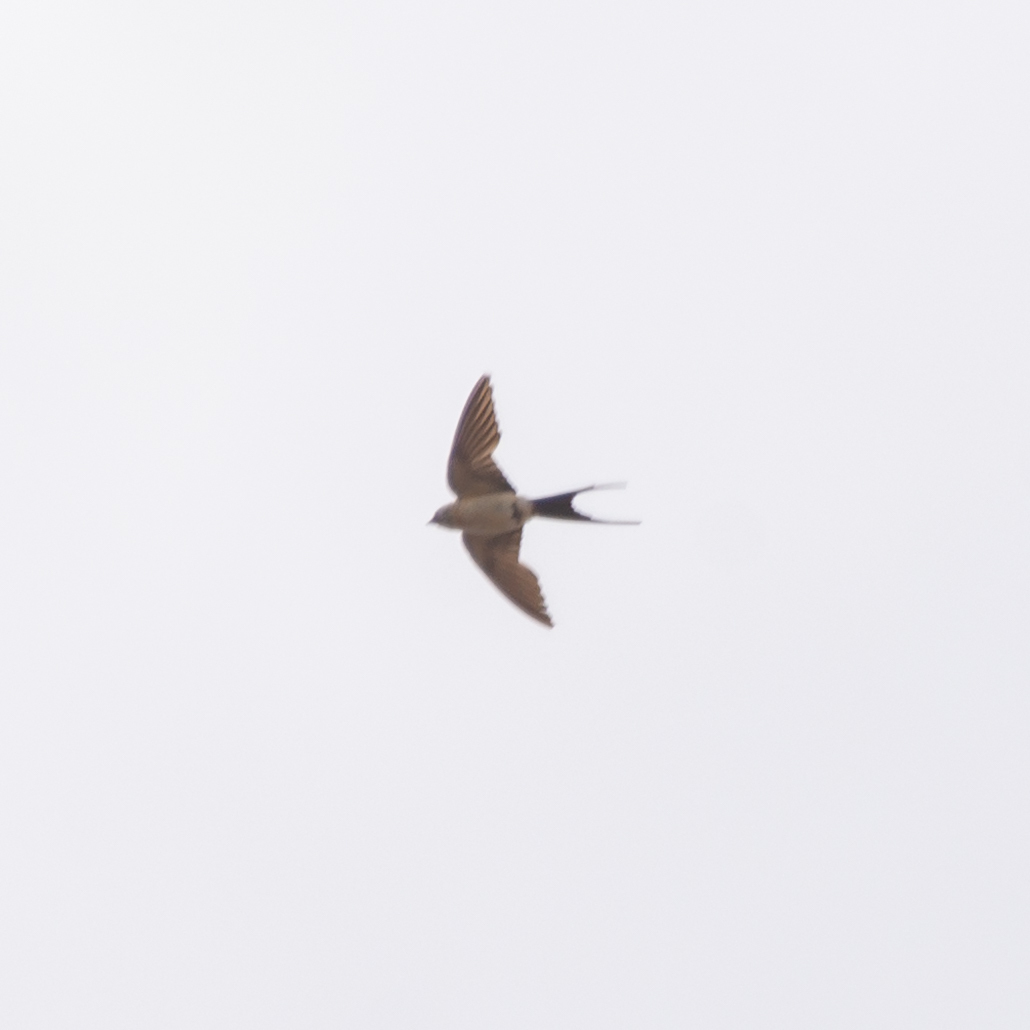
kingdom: Animalia
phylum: Chordata
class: Aves
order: Passeriformes
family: Hirundinidae
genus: Cecropis
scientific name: Cecropis daurica
